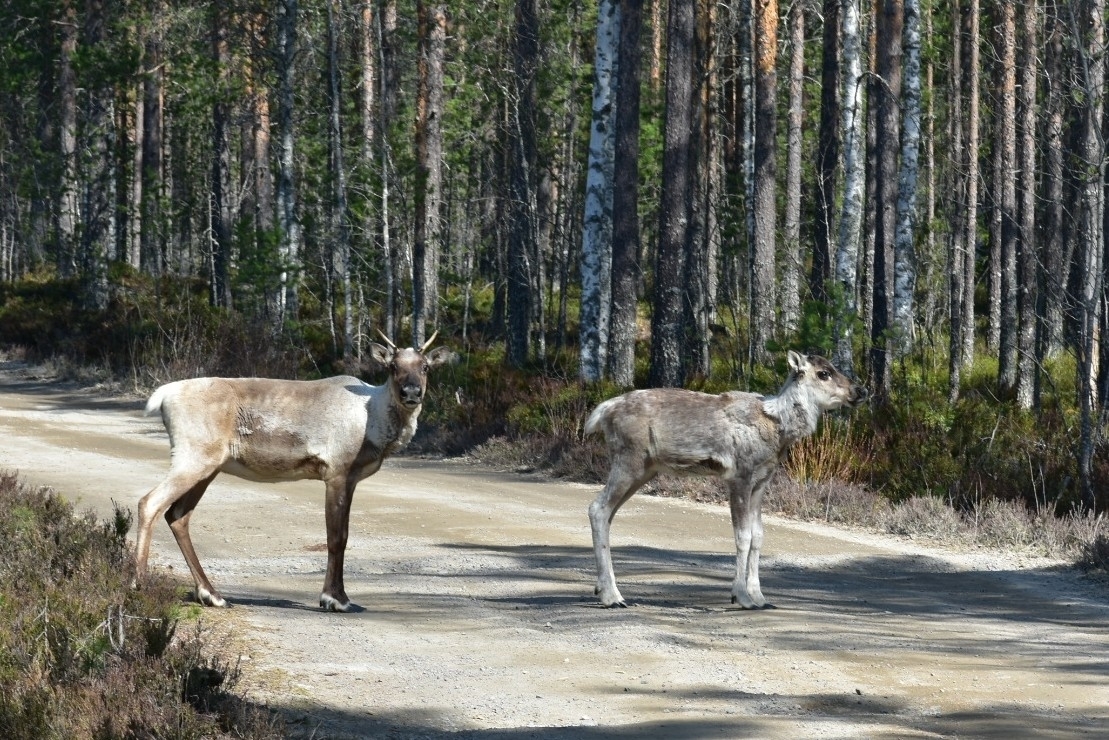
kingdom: Animalia
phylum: Chordata
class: Mammalia
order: Artiodactyla
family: Cervidae
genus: Rangifer
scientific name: Rangifer tarandus
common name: Reindeer
